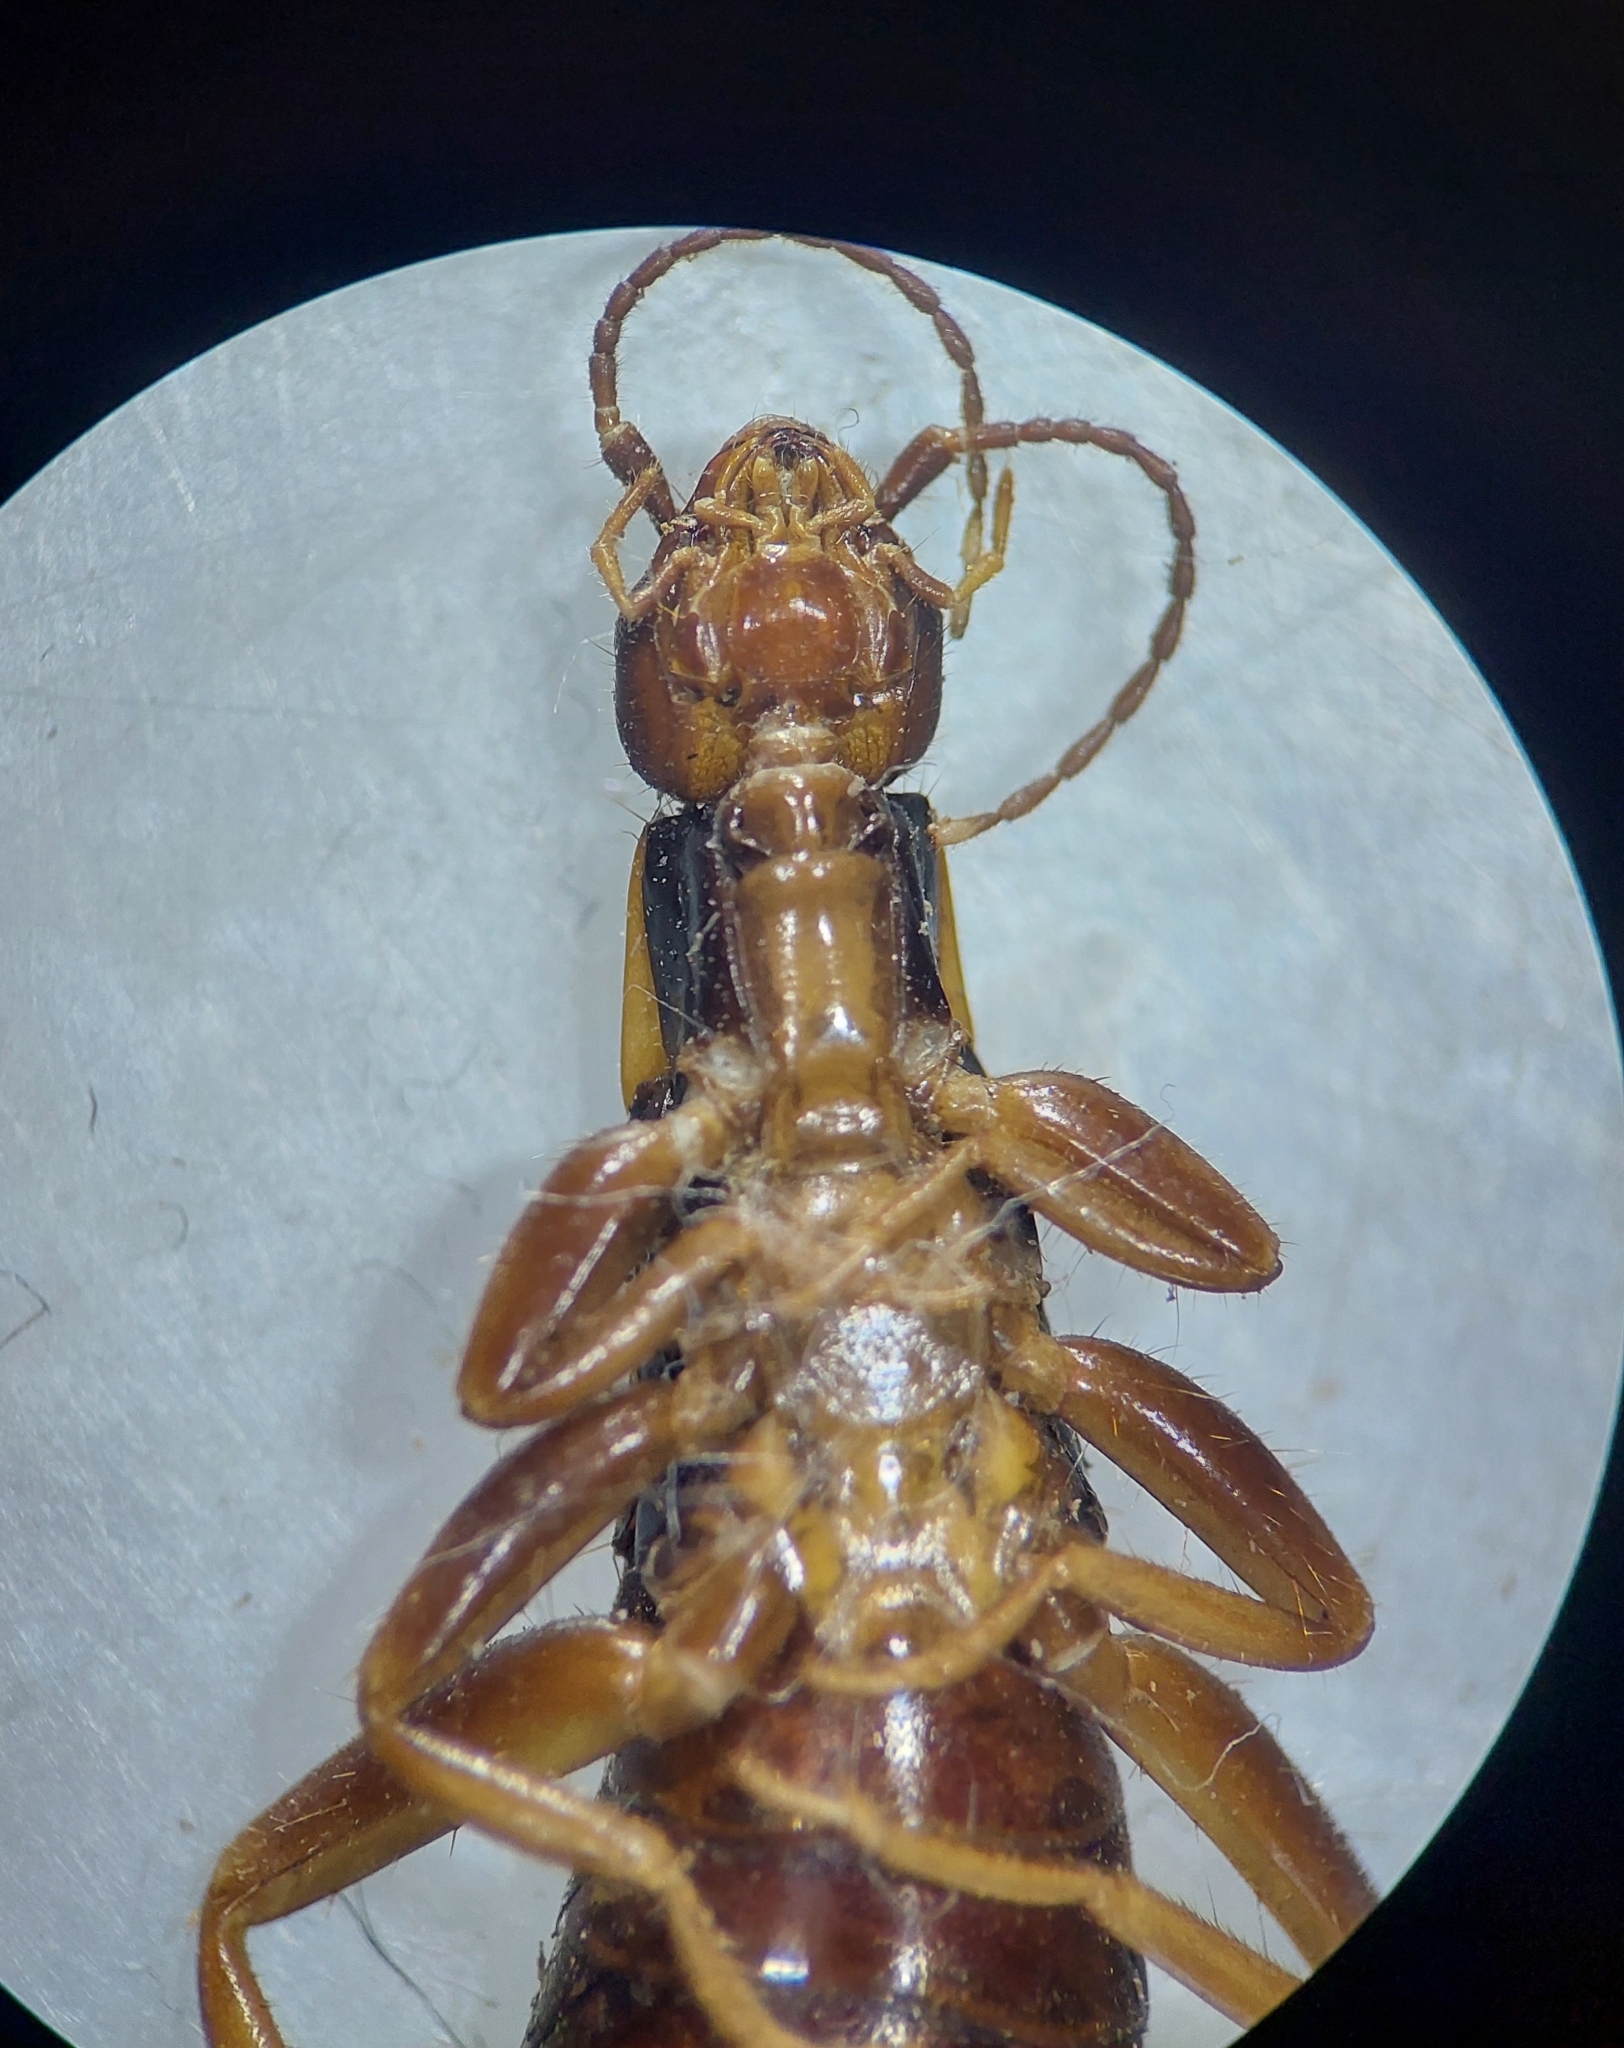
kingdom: Animalia
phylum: Arthropoda
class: Insecta
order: Dermaptera
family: Anisolabididae
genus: Gonolabis
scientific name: Gonolabis sumatrana
